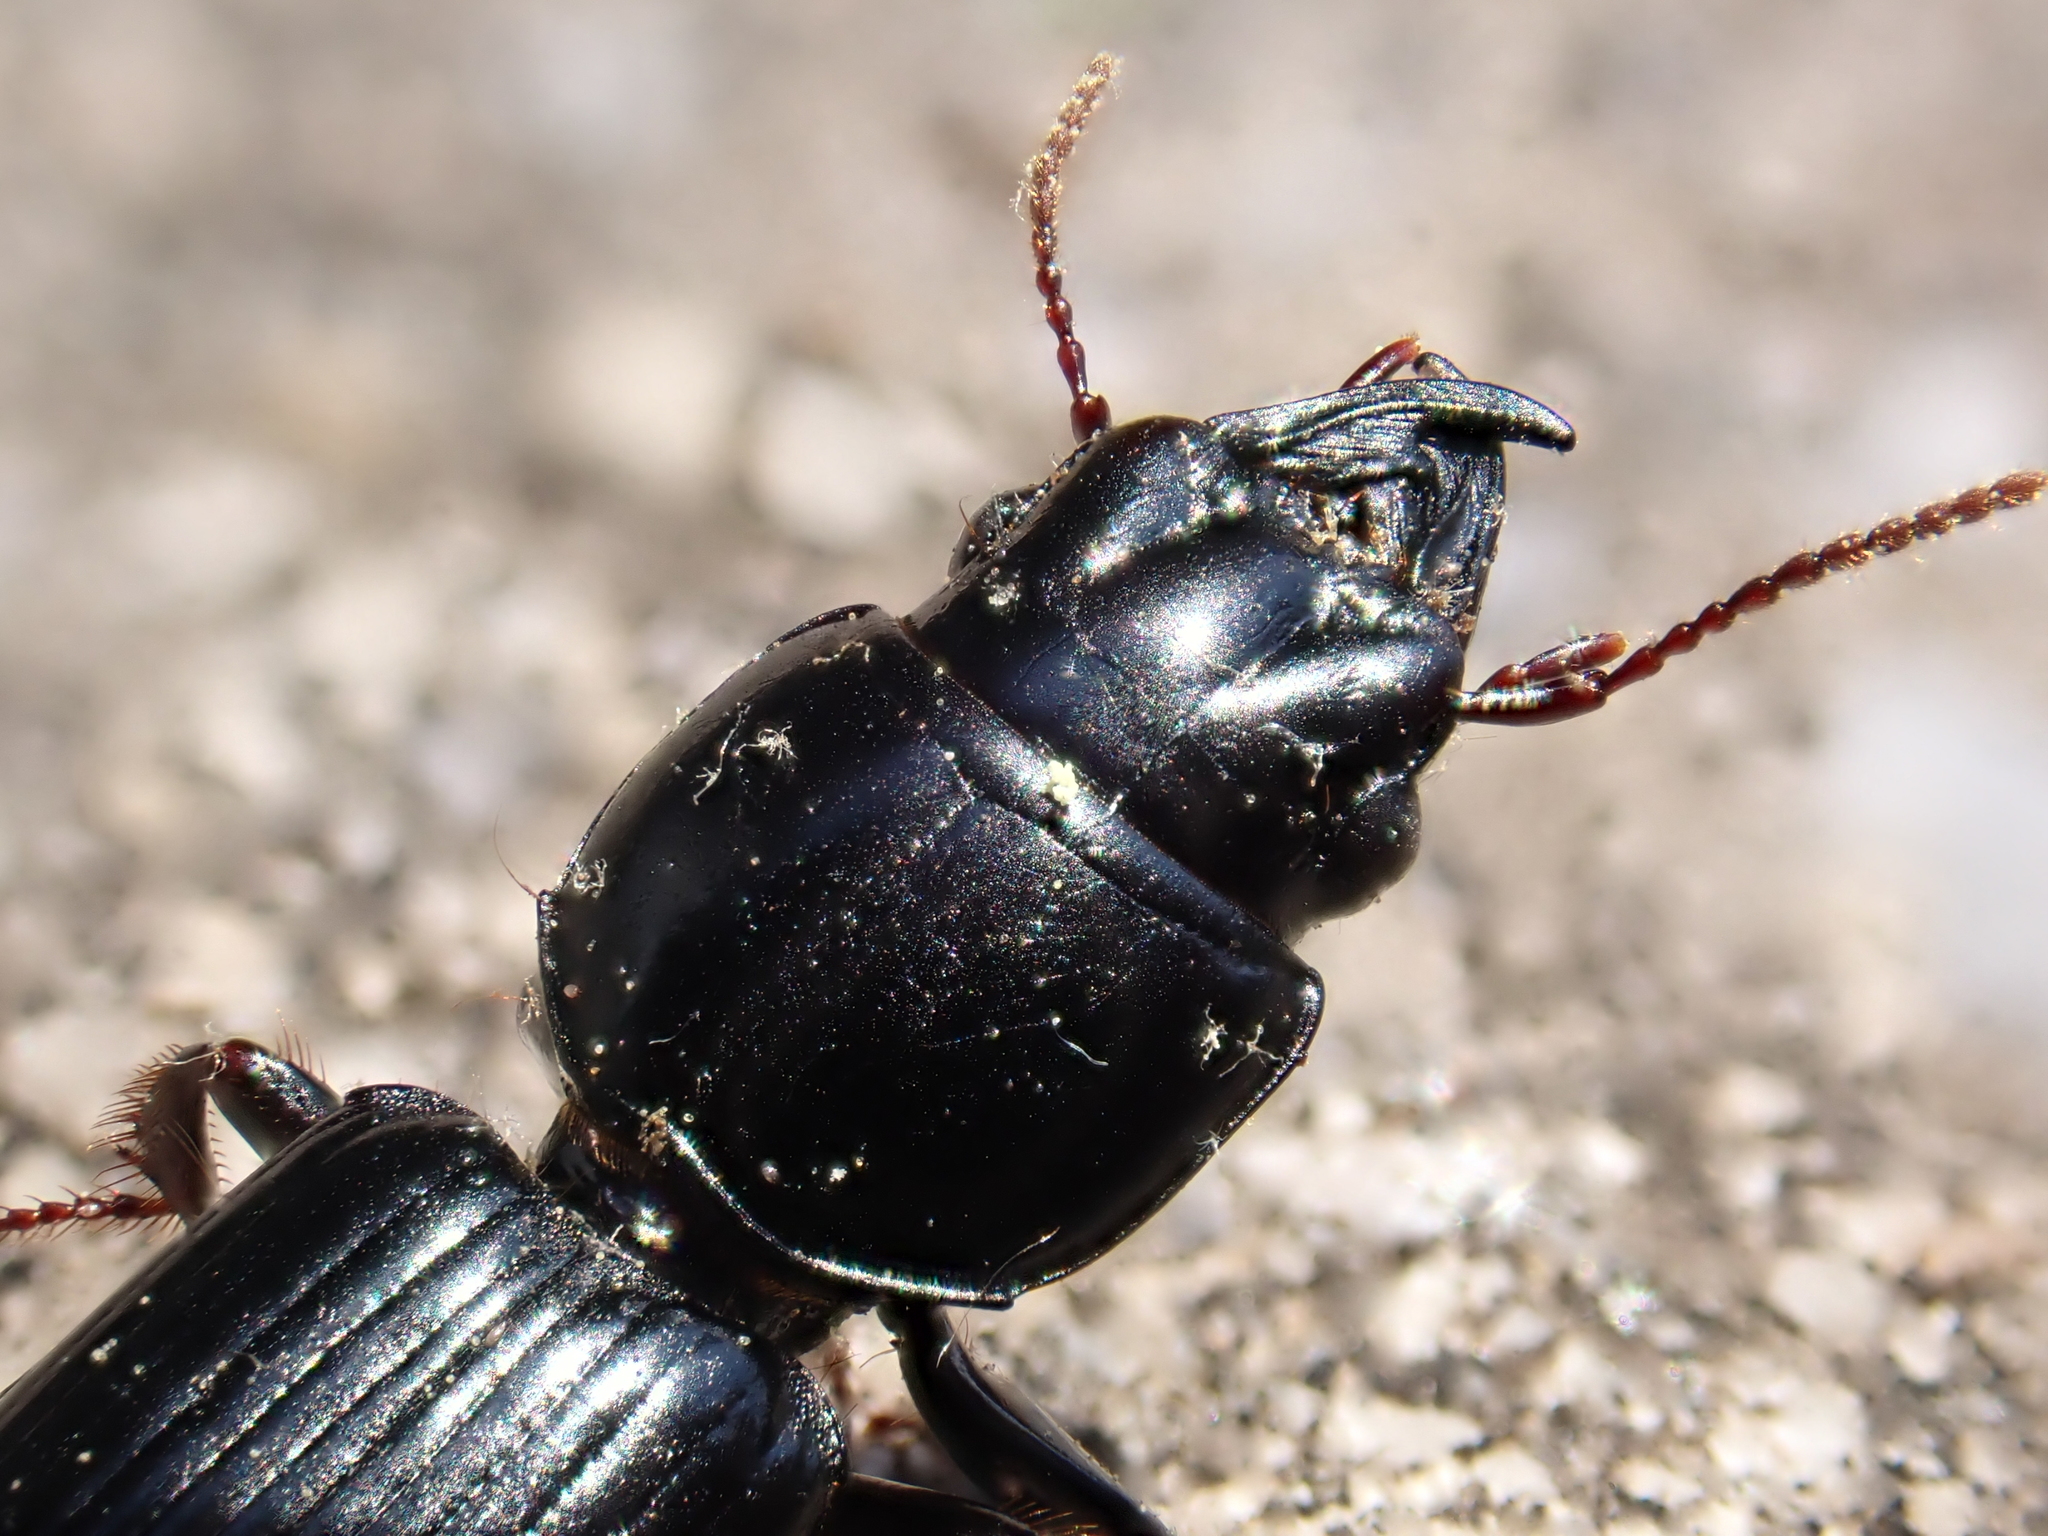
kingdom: Animalia
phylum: Arthropoda
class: Insecta
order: Coleoptera
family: Carabidae
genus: Scarites
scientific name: Scarites subterraneus
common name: Big-headed ground beetle
